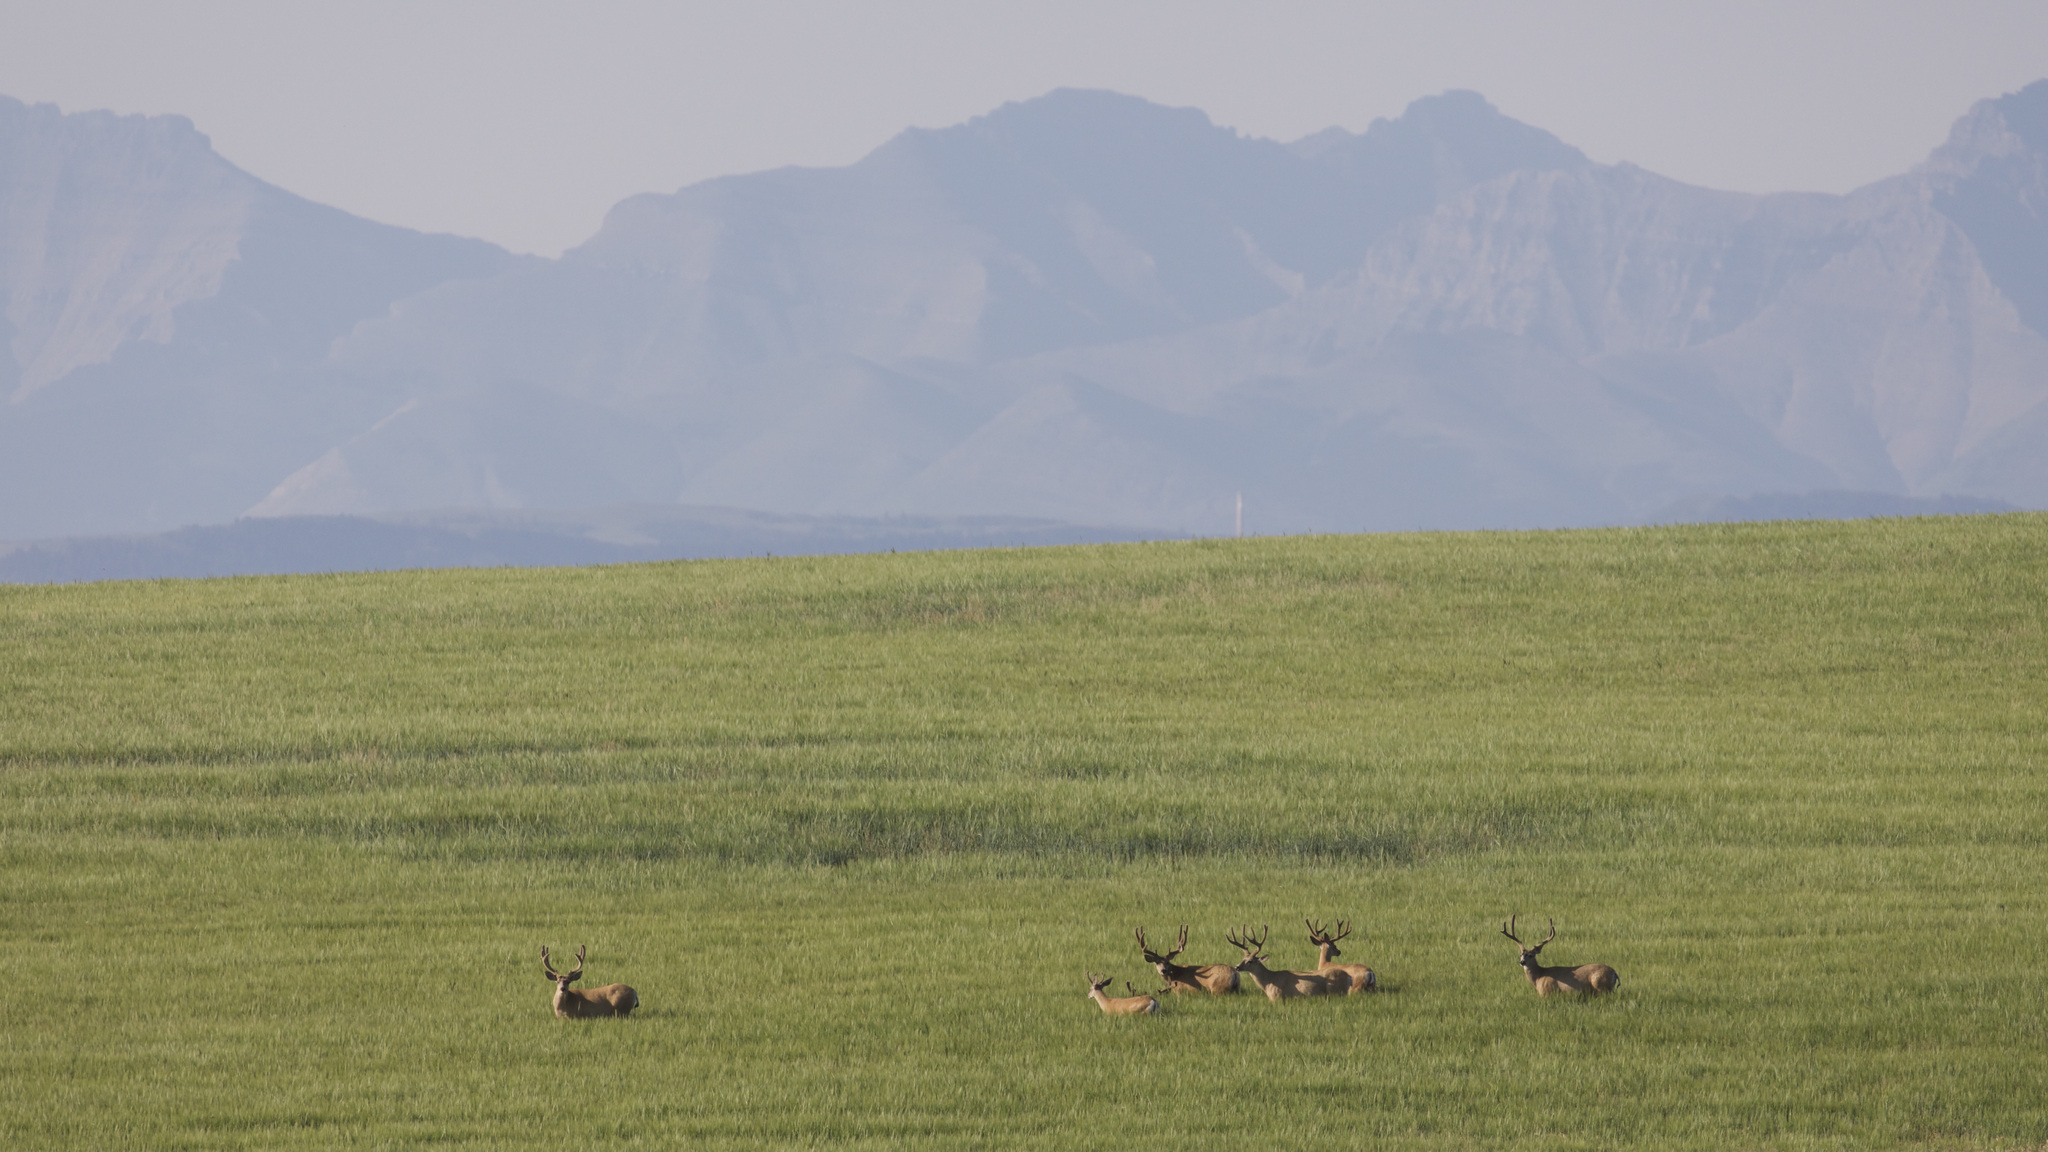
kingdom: Animalia
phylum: Chordata
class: Mammalia
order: Artiodactyla
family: Cervidae
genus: Odocoileus
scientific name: Odocoileus hemionus
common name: Mule deer
